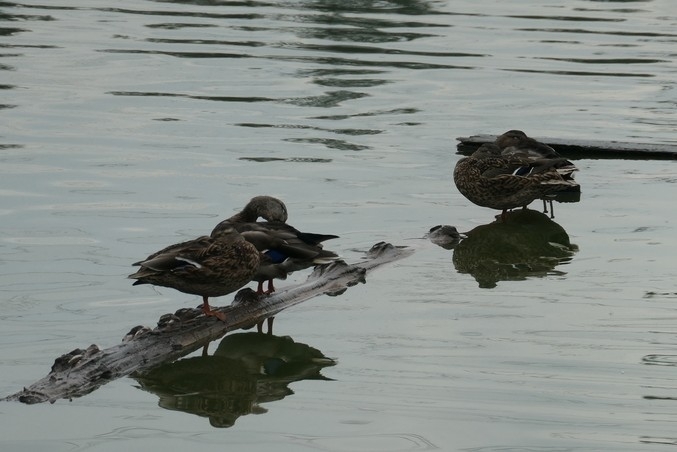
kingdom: Animalia
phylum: Chordata
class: Aves
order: Anseriformes
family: Anatidae
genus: Anas
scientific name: Anas platyrhynchos
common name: Mallard
